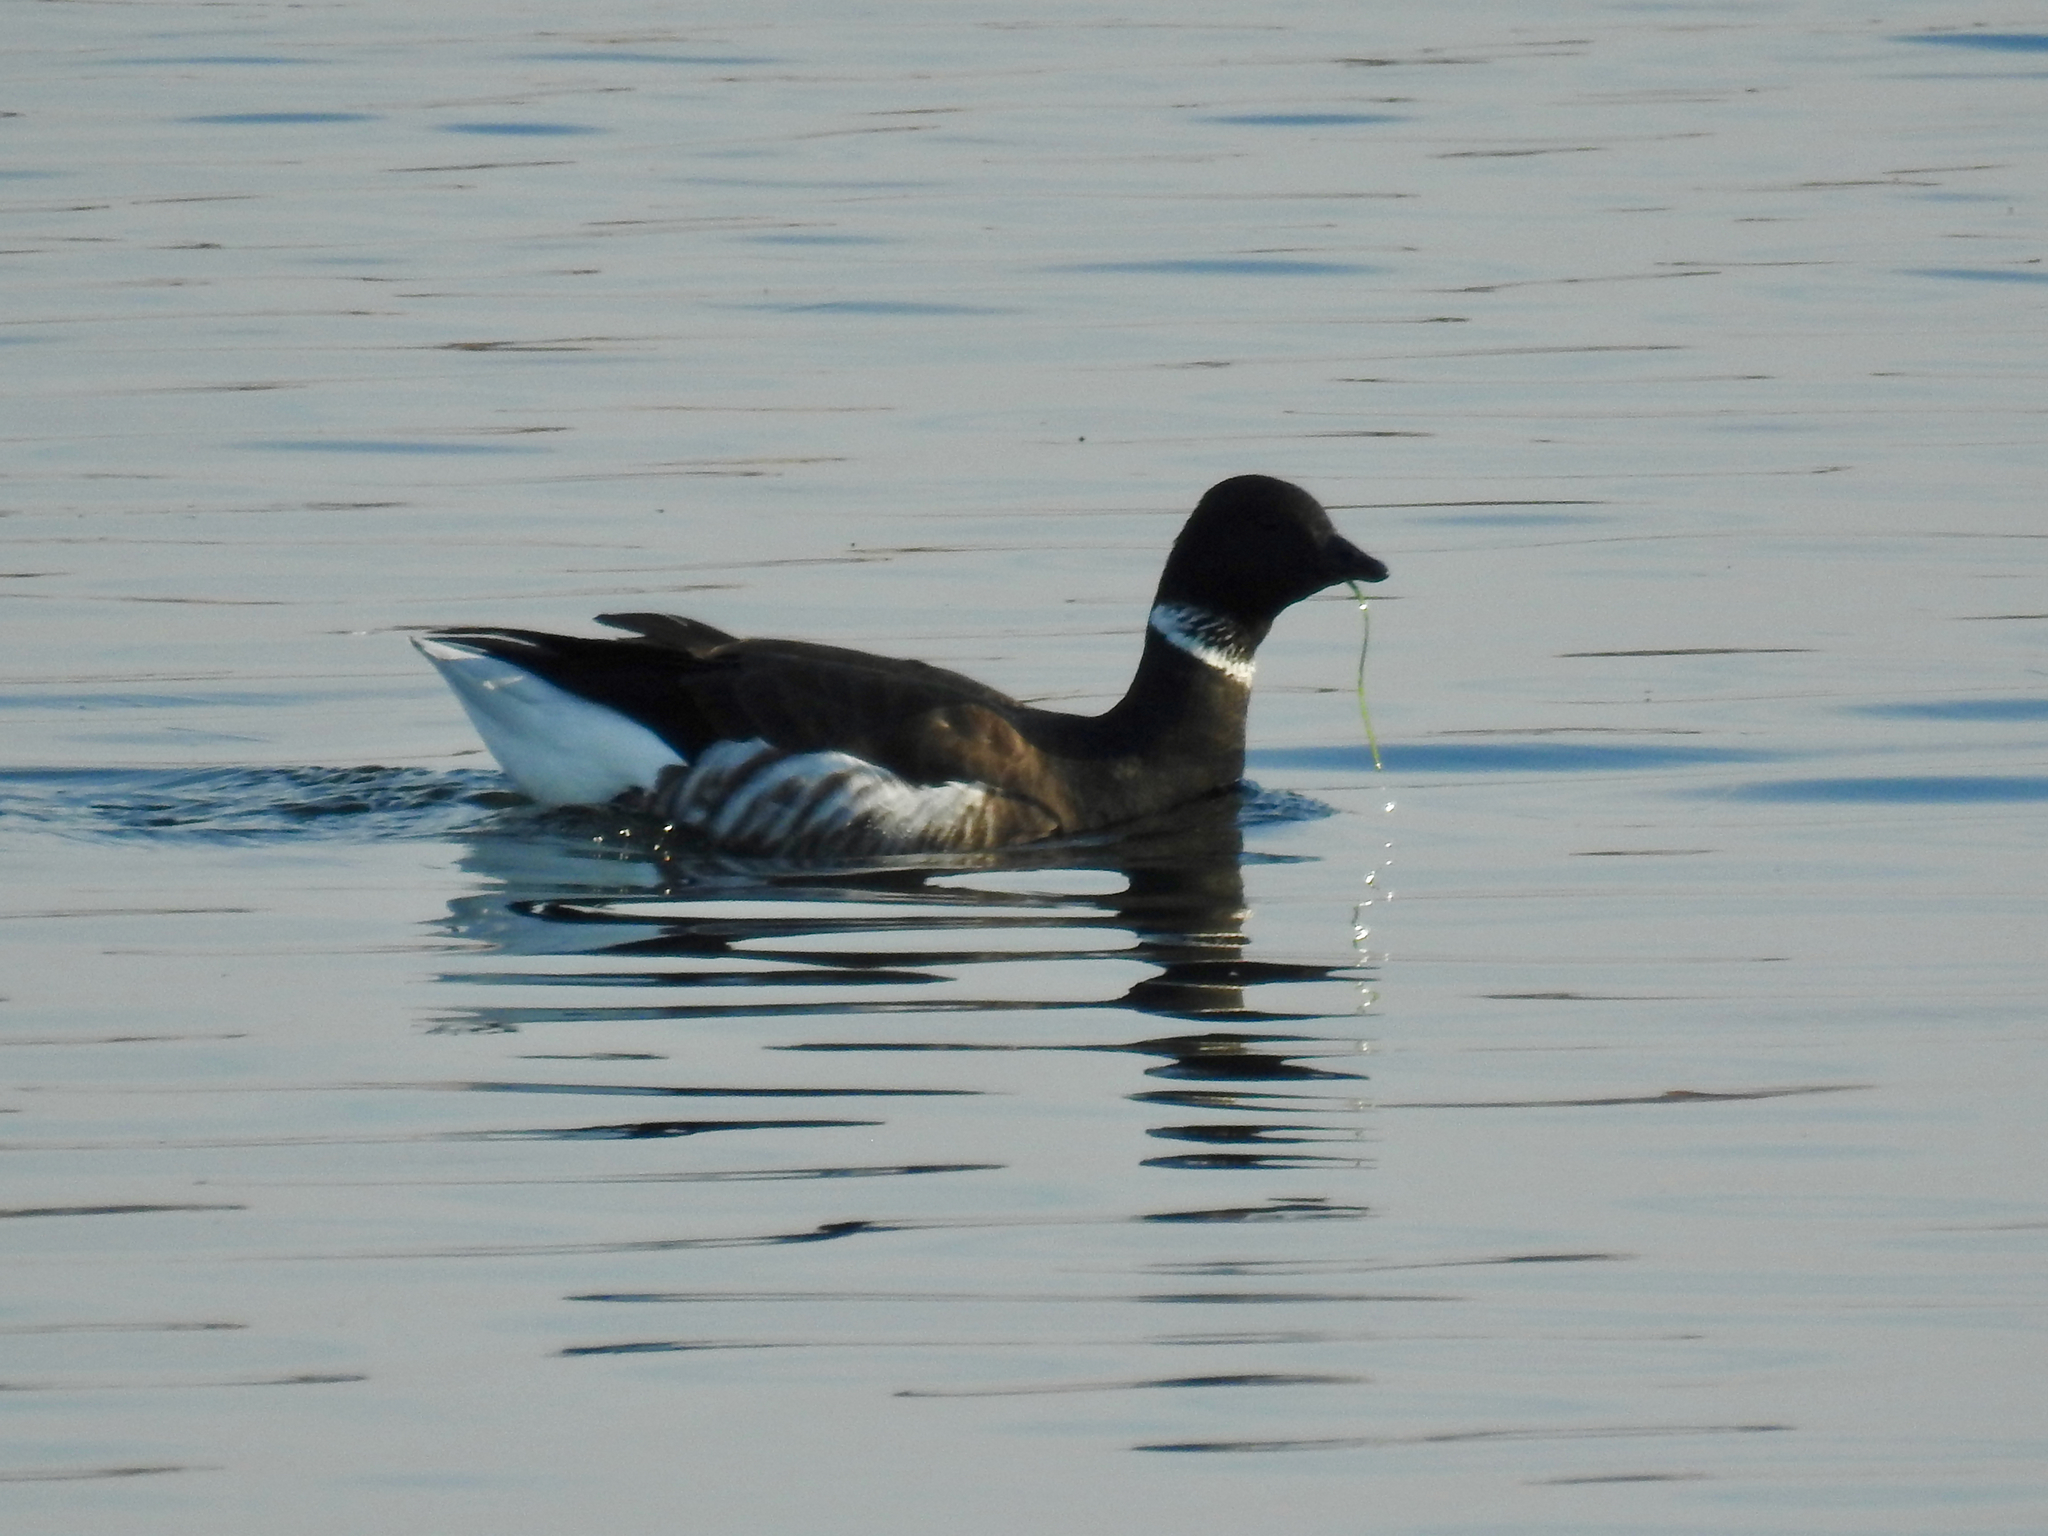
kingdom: Animalia
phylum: Chordata
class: Aves
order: Anseriformes
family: Anatidae
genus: Branta
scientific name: Branta bernicla
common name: Brant goose
